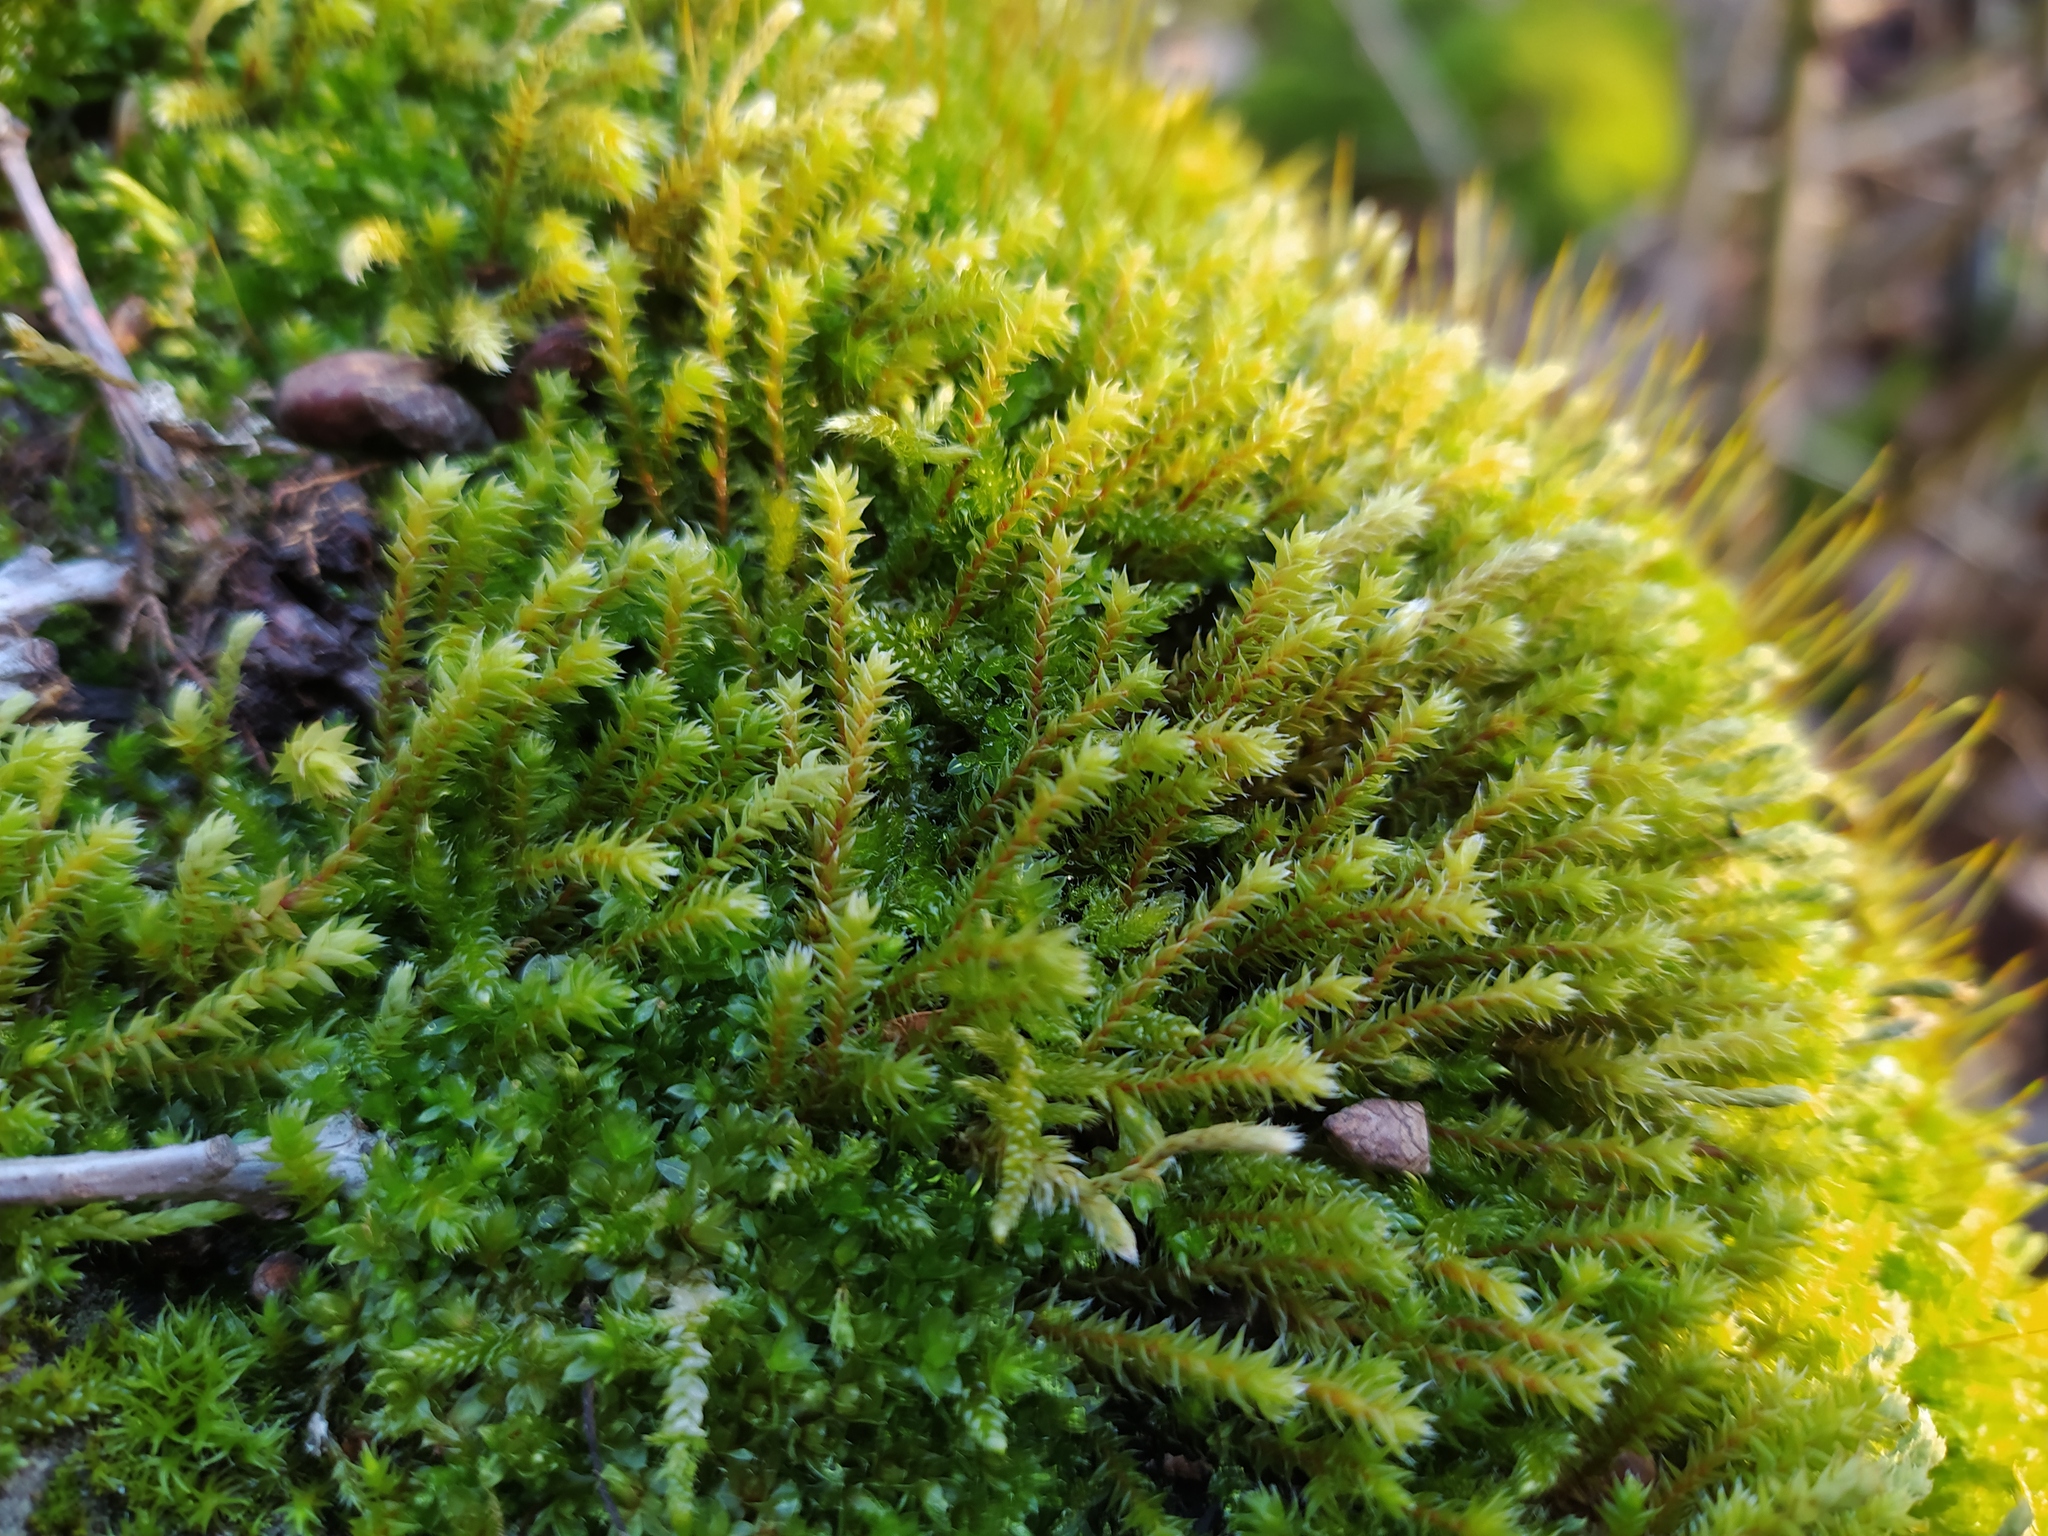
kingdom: Plantae
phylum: Bryophyta
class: Bryopsida
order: Hedwigiales
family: Hedwigiaceae
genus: Hedwigia
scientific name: Hedwigia ciliata
